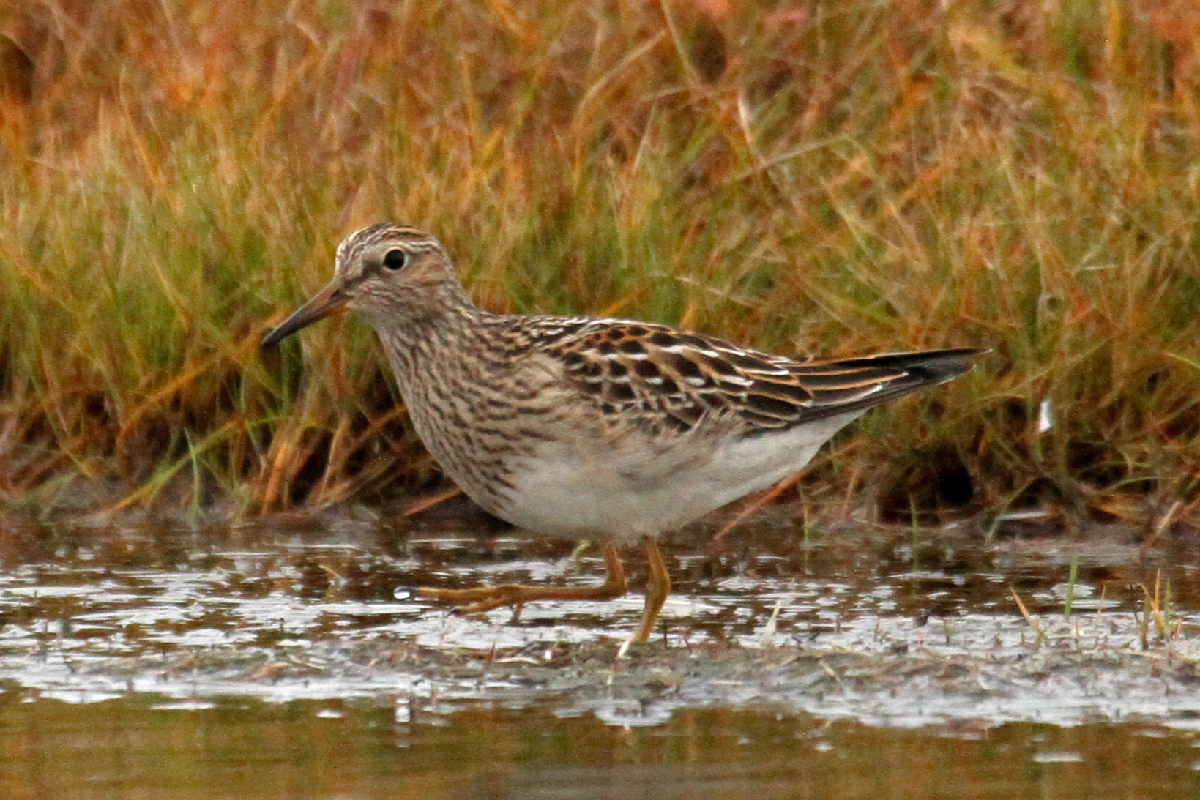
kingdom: Animalia
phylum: Chordata
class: Aves
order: Charadriiformes
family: Scolopacidae
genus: Calidris
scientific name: Calidris melanotos
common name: Pectoral sandpiper
